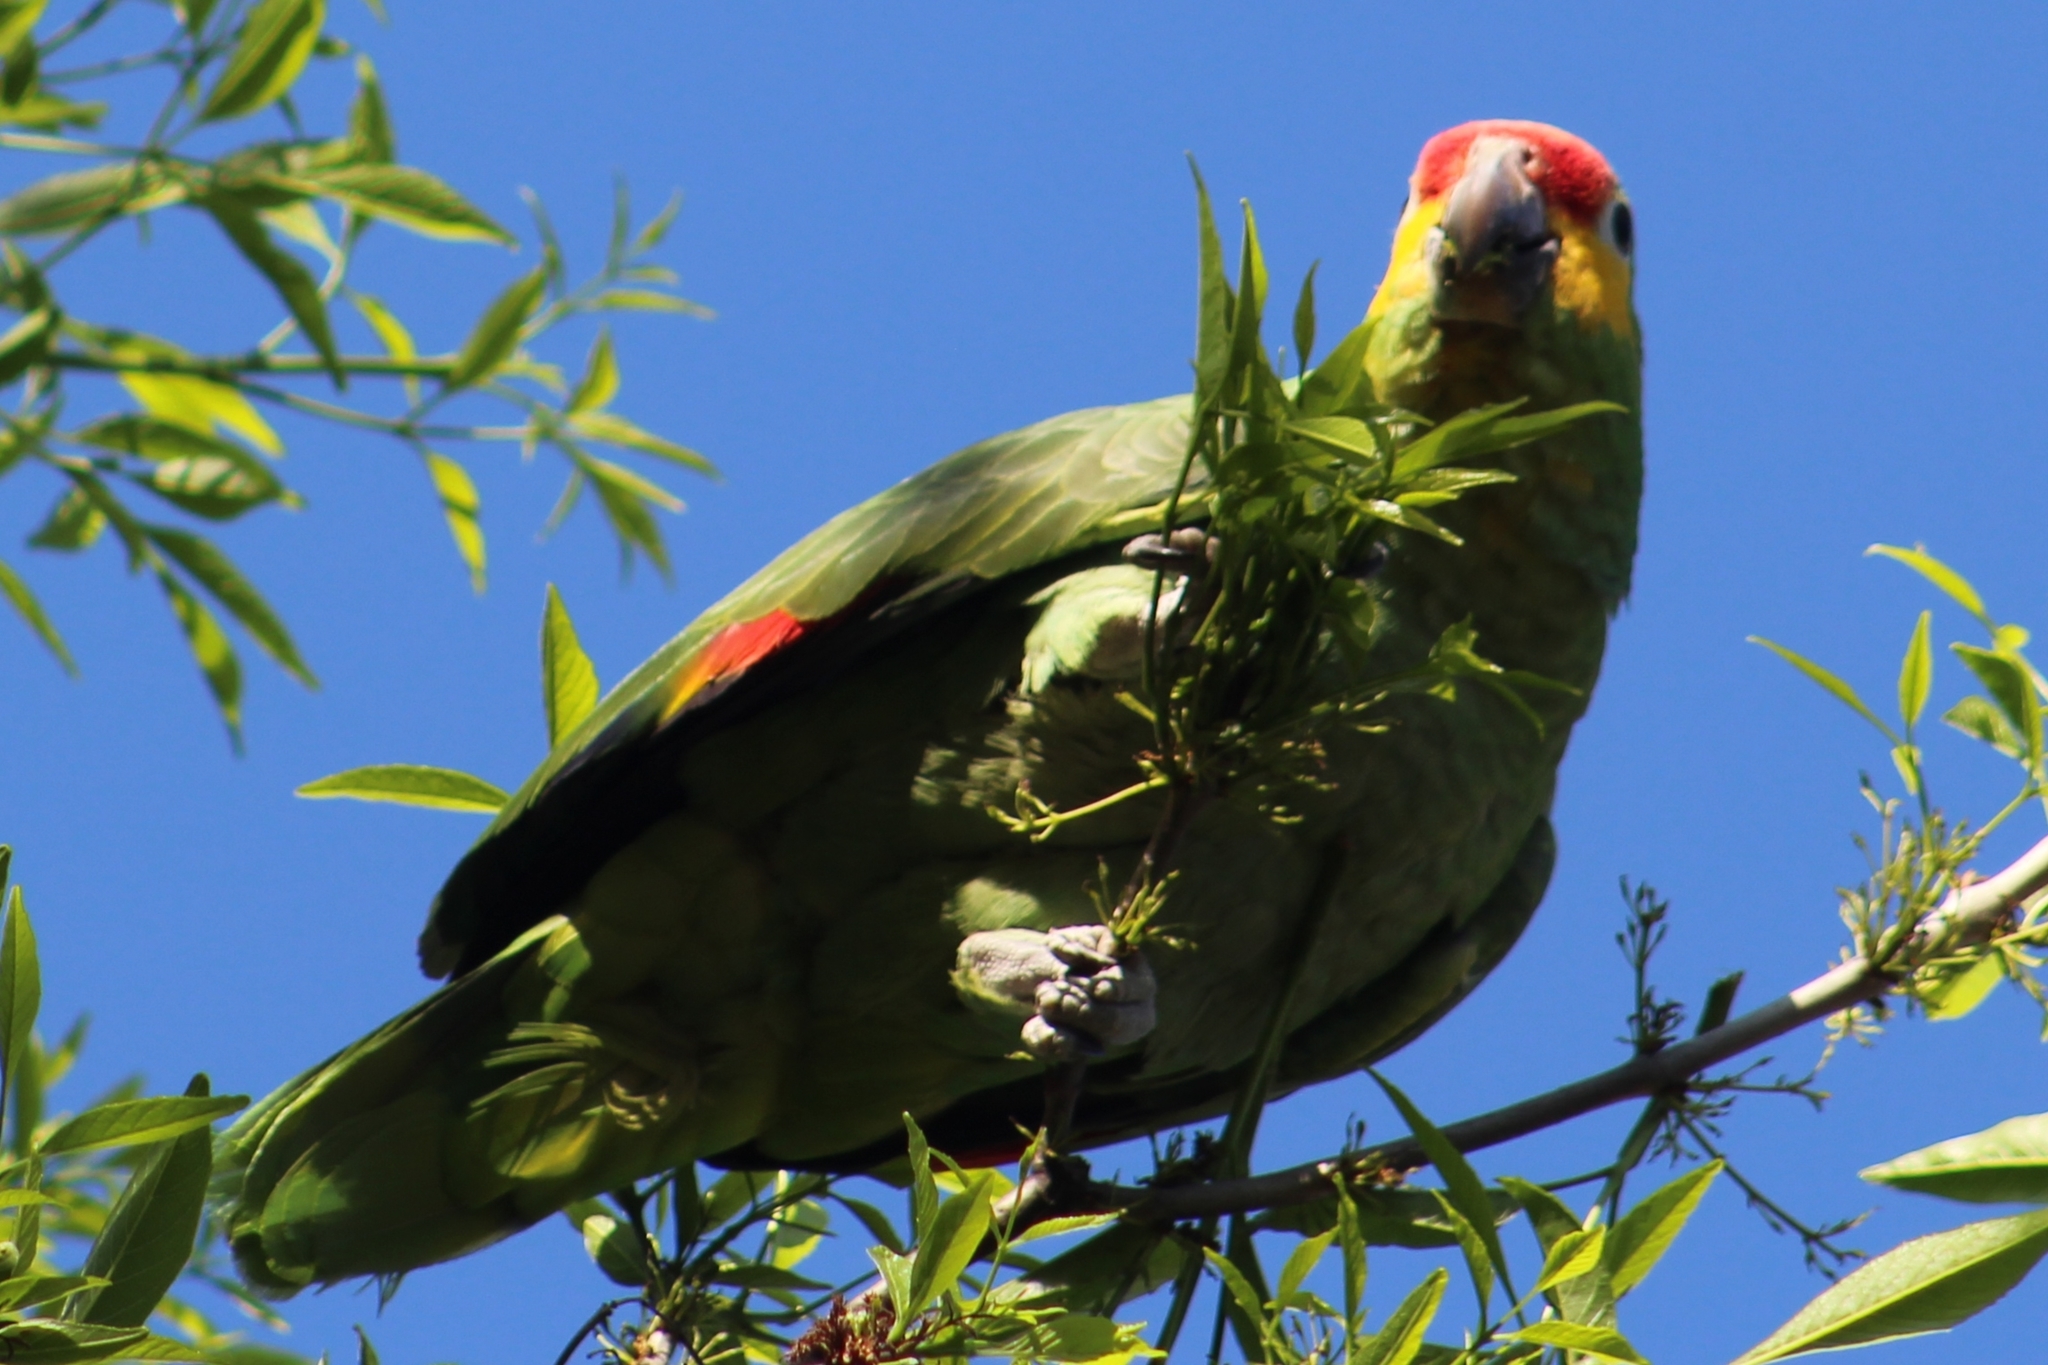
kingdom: Animalia
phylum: Chordata
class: Aves
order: Psittaciformes
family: Psittacidae
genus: Amazona
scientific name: Amazona autumnalis
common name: Red-lored amazon
